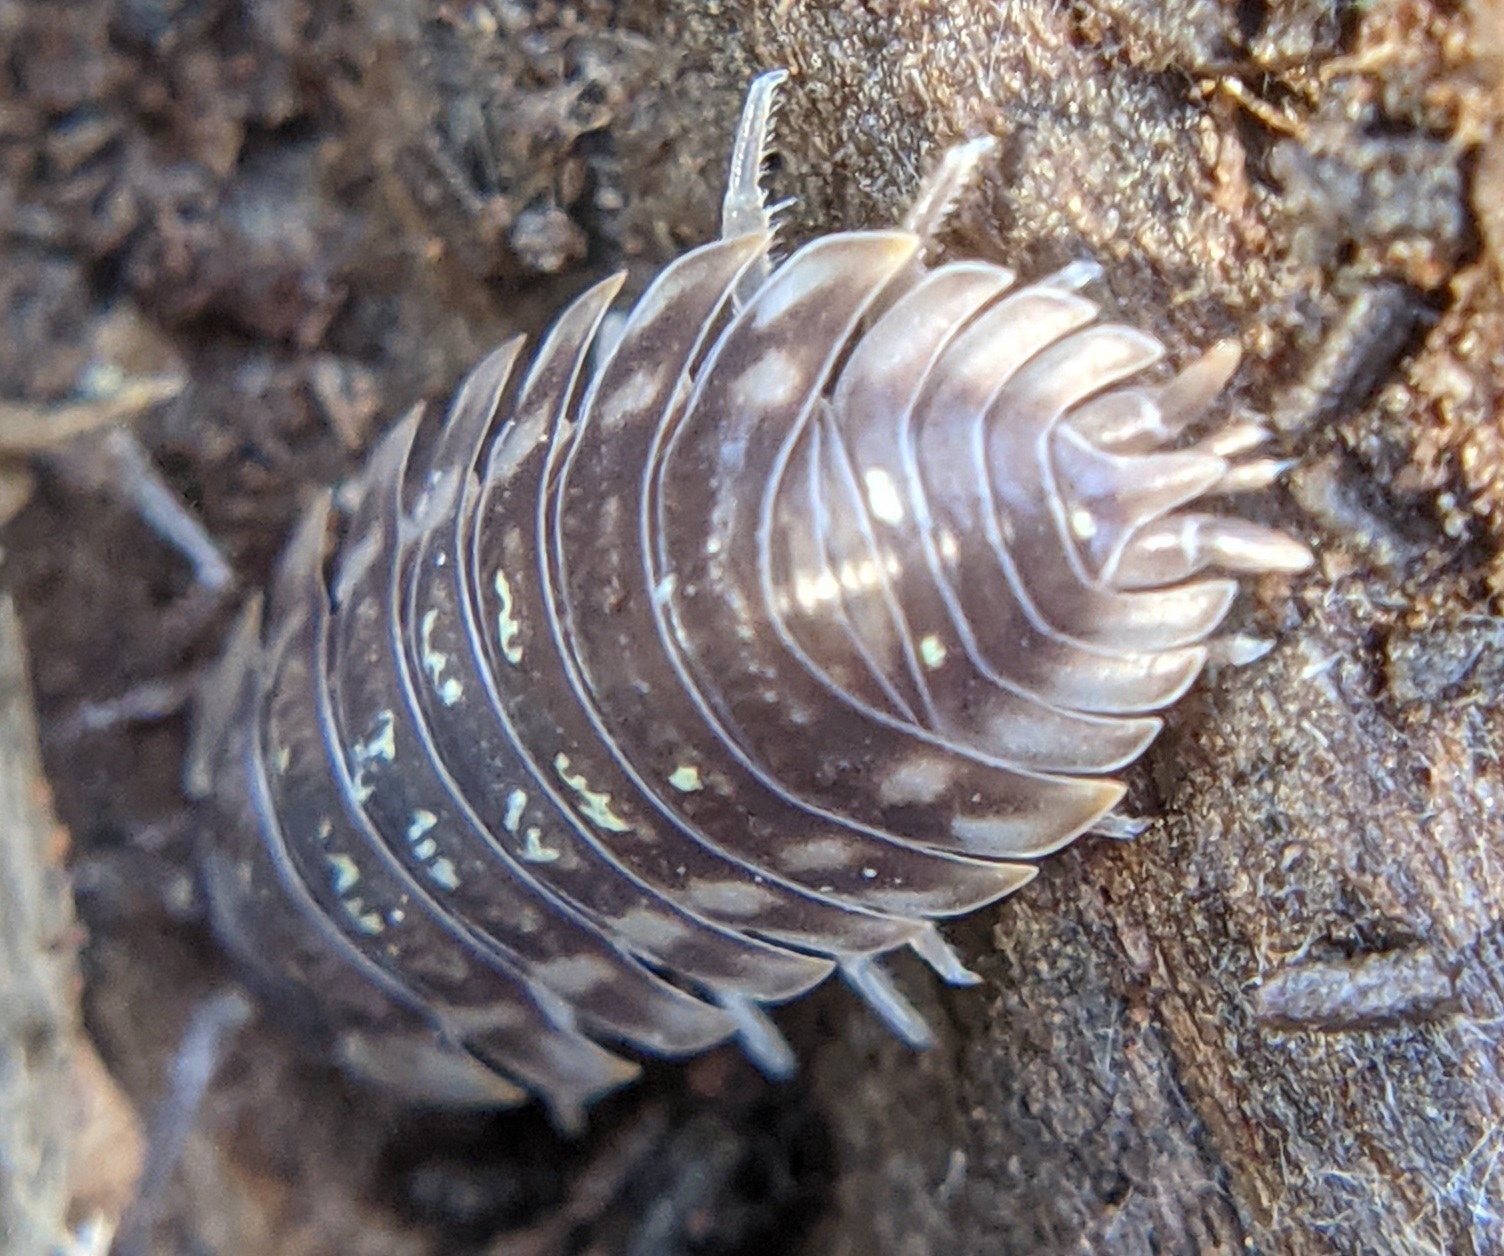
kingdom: Animalia
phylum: Arthropoda
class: Malacostraca
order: Isopoda
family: Oniscidae
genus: Oniscus
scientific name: Oniscus asellus
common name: Common shiny woodlouse
